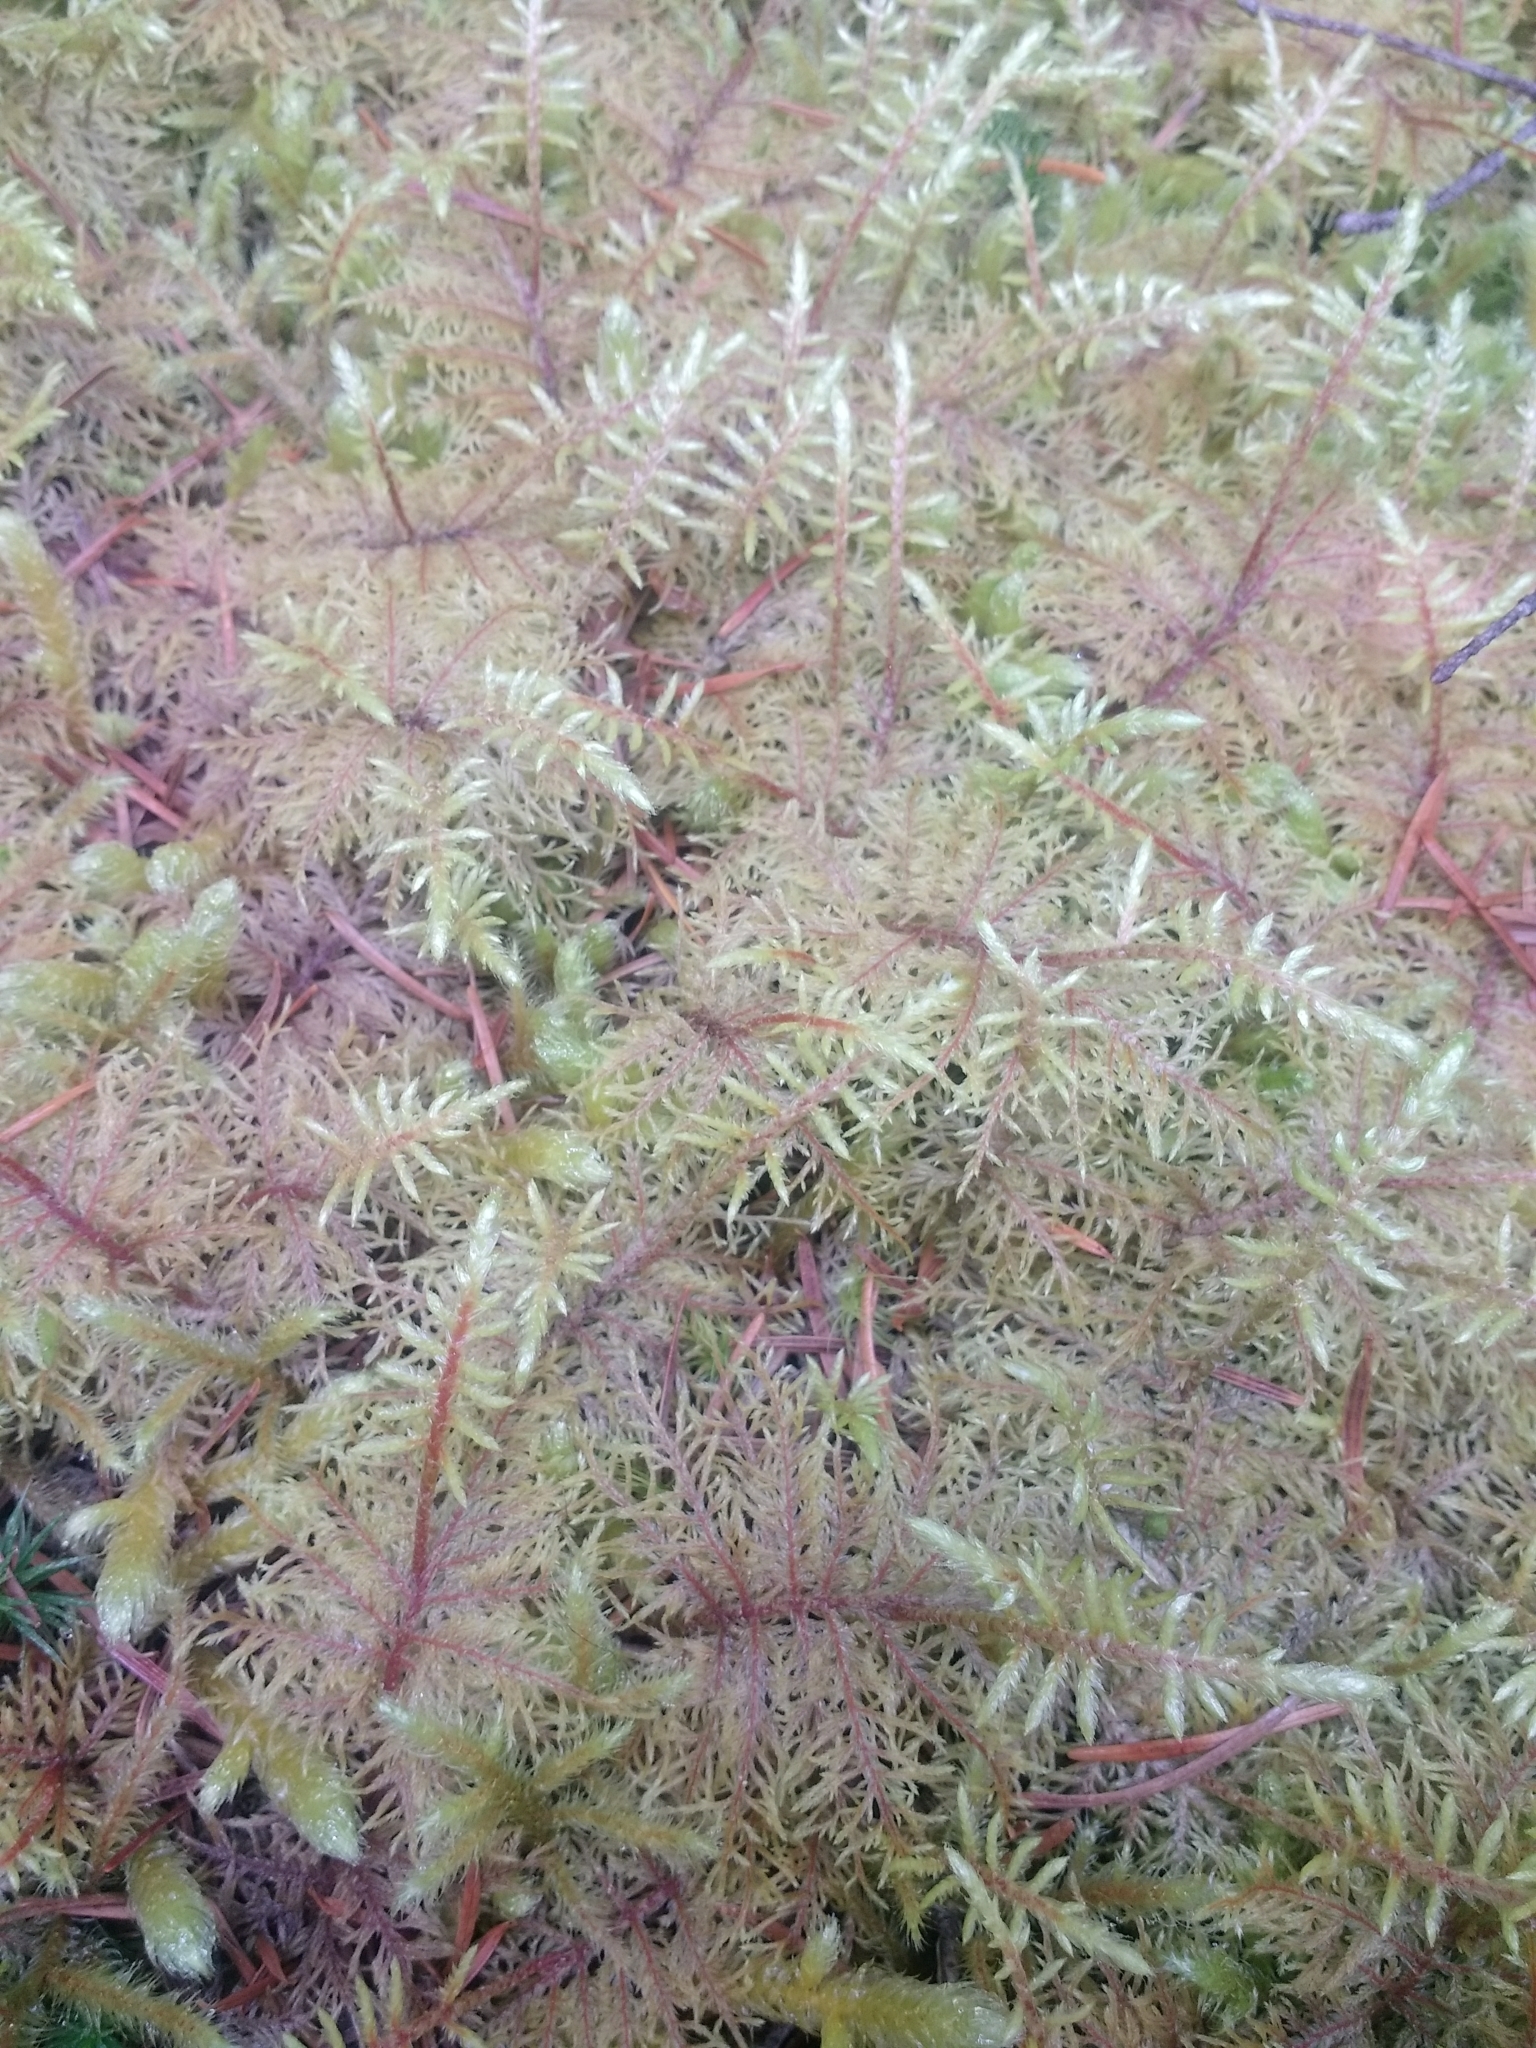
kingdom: Plantae
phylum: Bryophyta
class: Bryopsida
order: Hypnales
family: Hylocomiaceae
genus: Hylocomium
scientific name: Hylocomium splendens
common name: Stairstep moss
